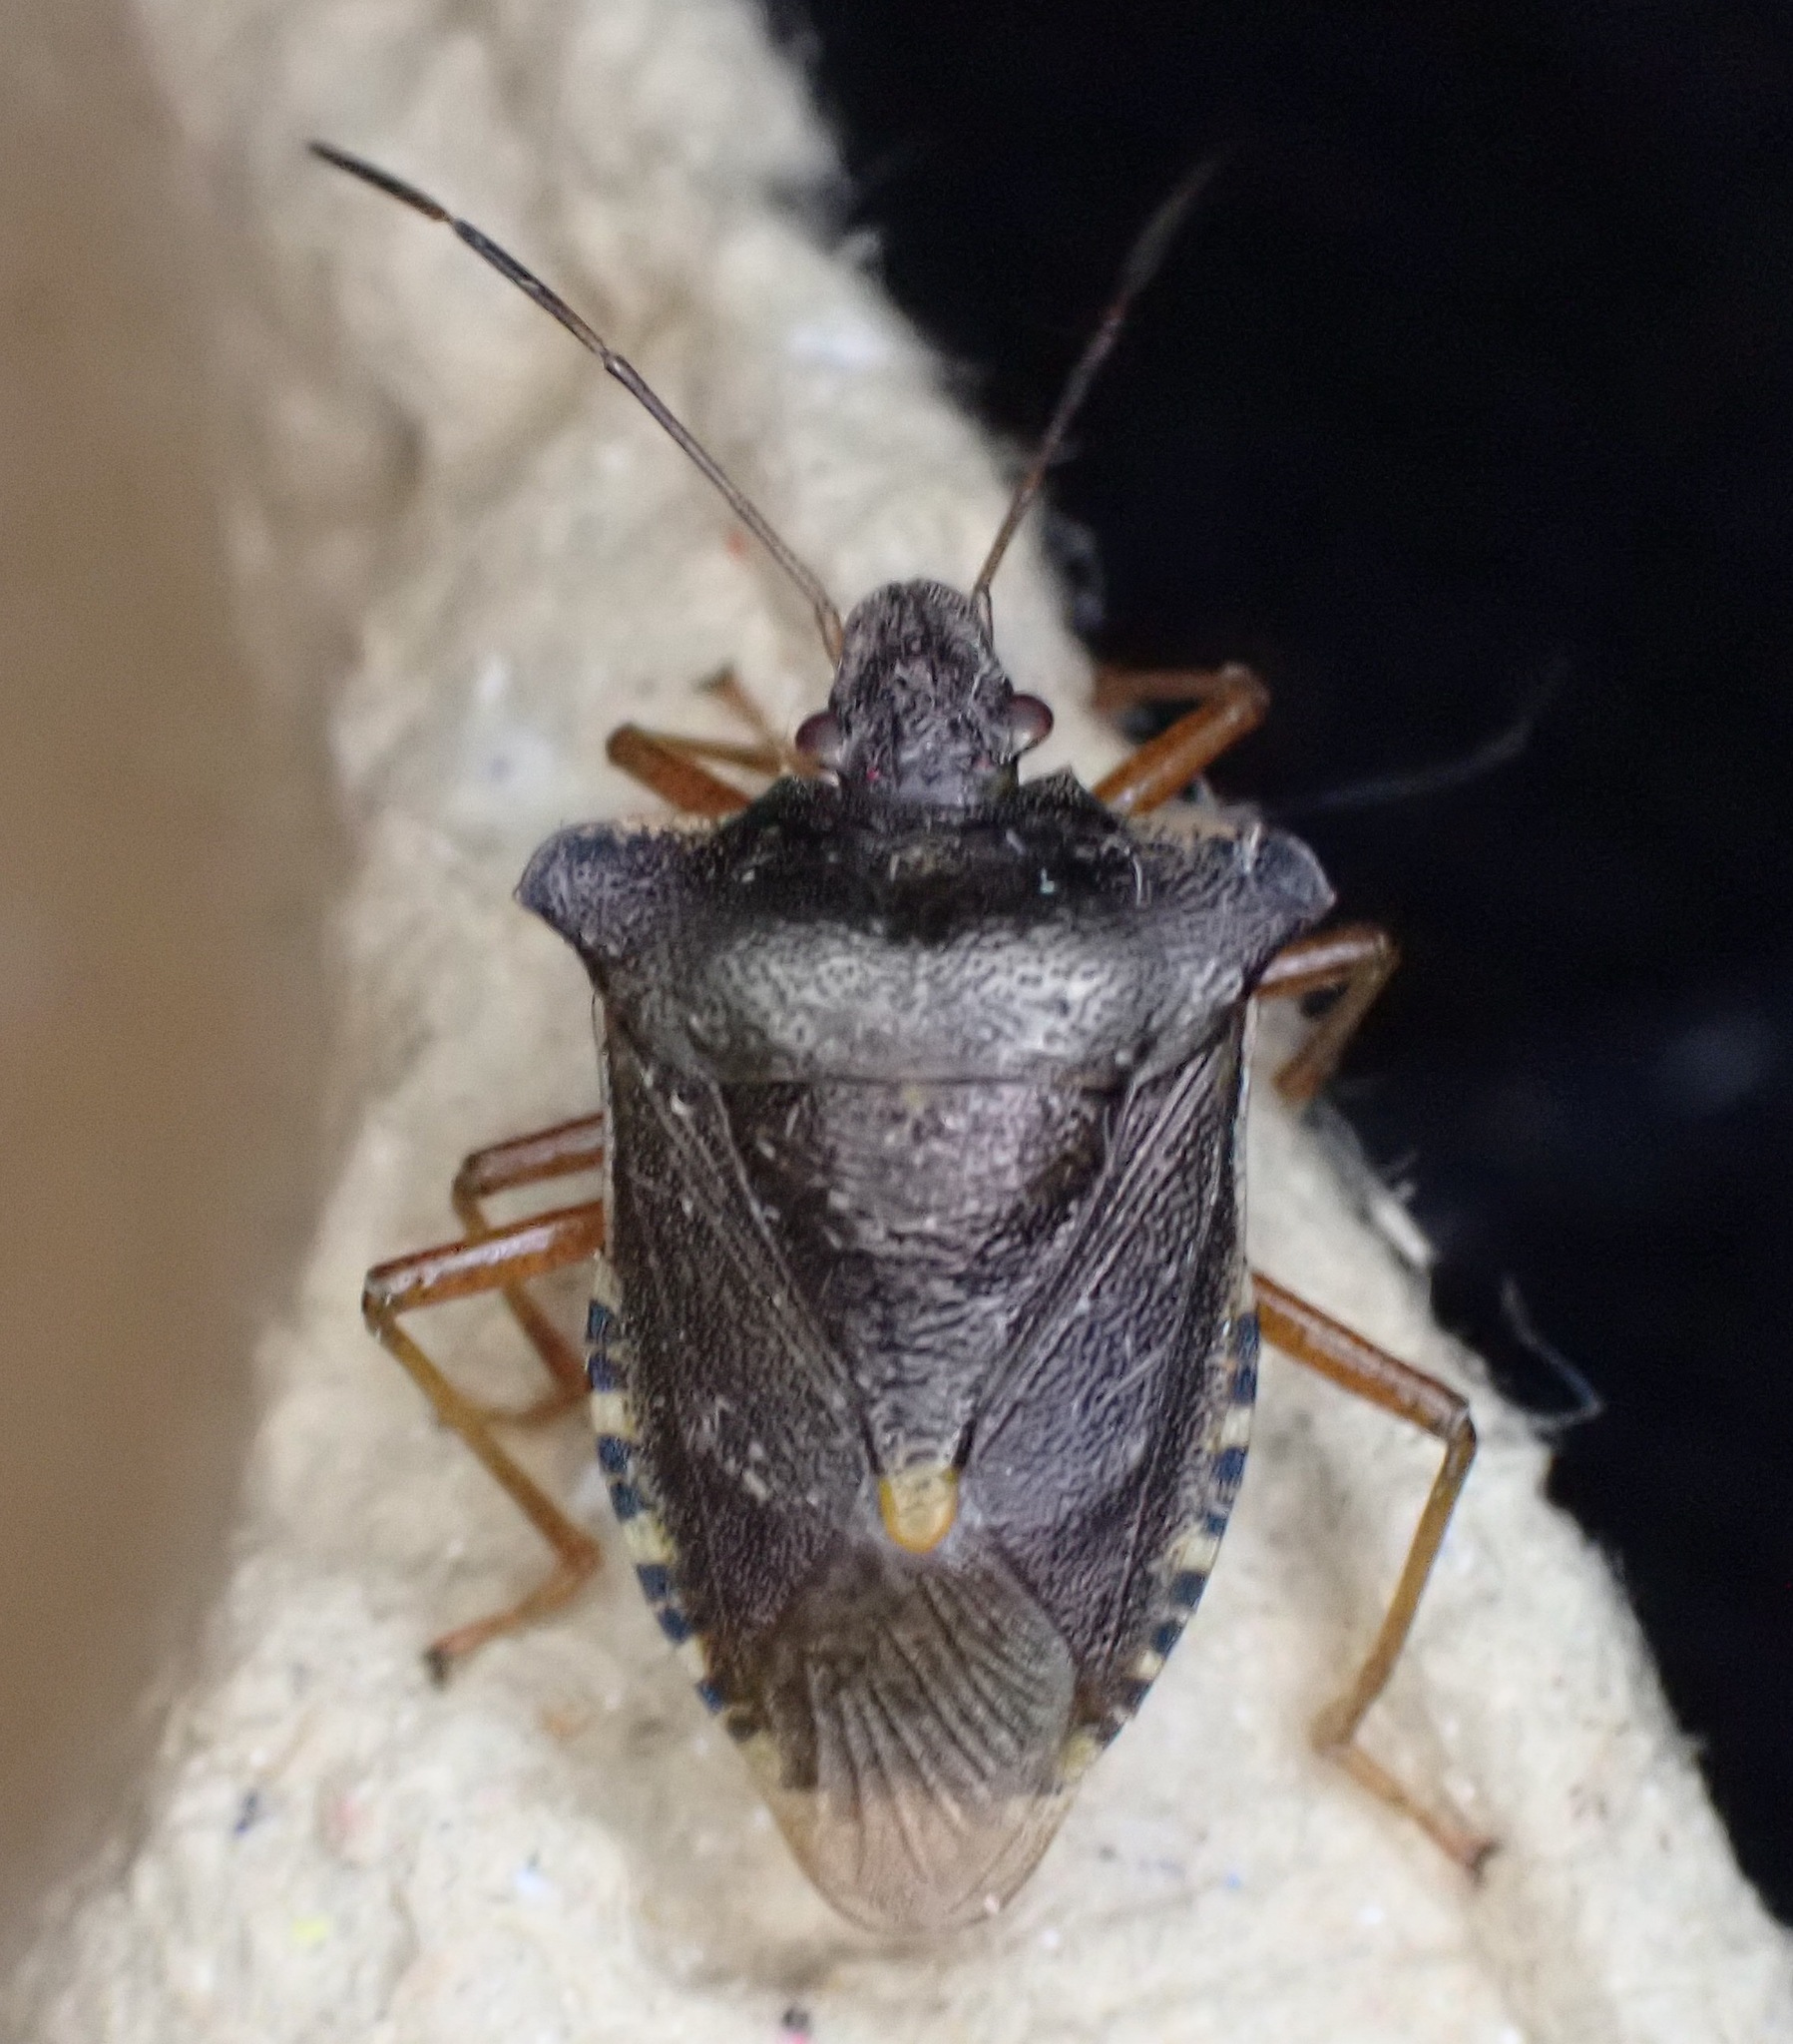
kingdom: Animalia
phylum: Arthropoda
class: Insecta
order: Hemiptera
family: Pentatomidae
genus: Pentatoma
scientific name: Pentatoma rufipes
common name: Forest bug
